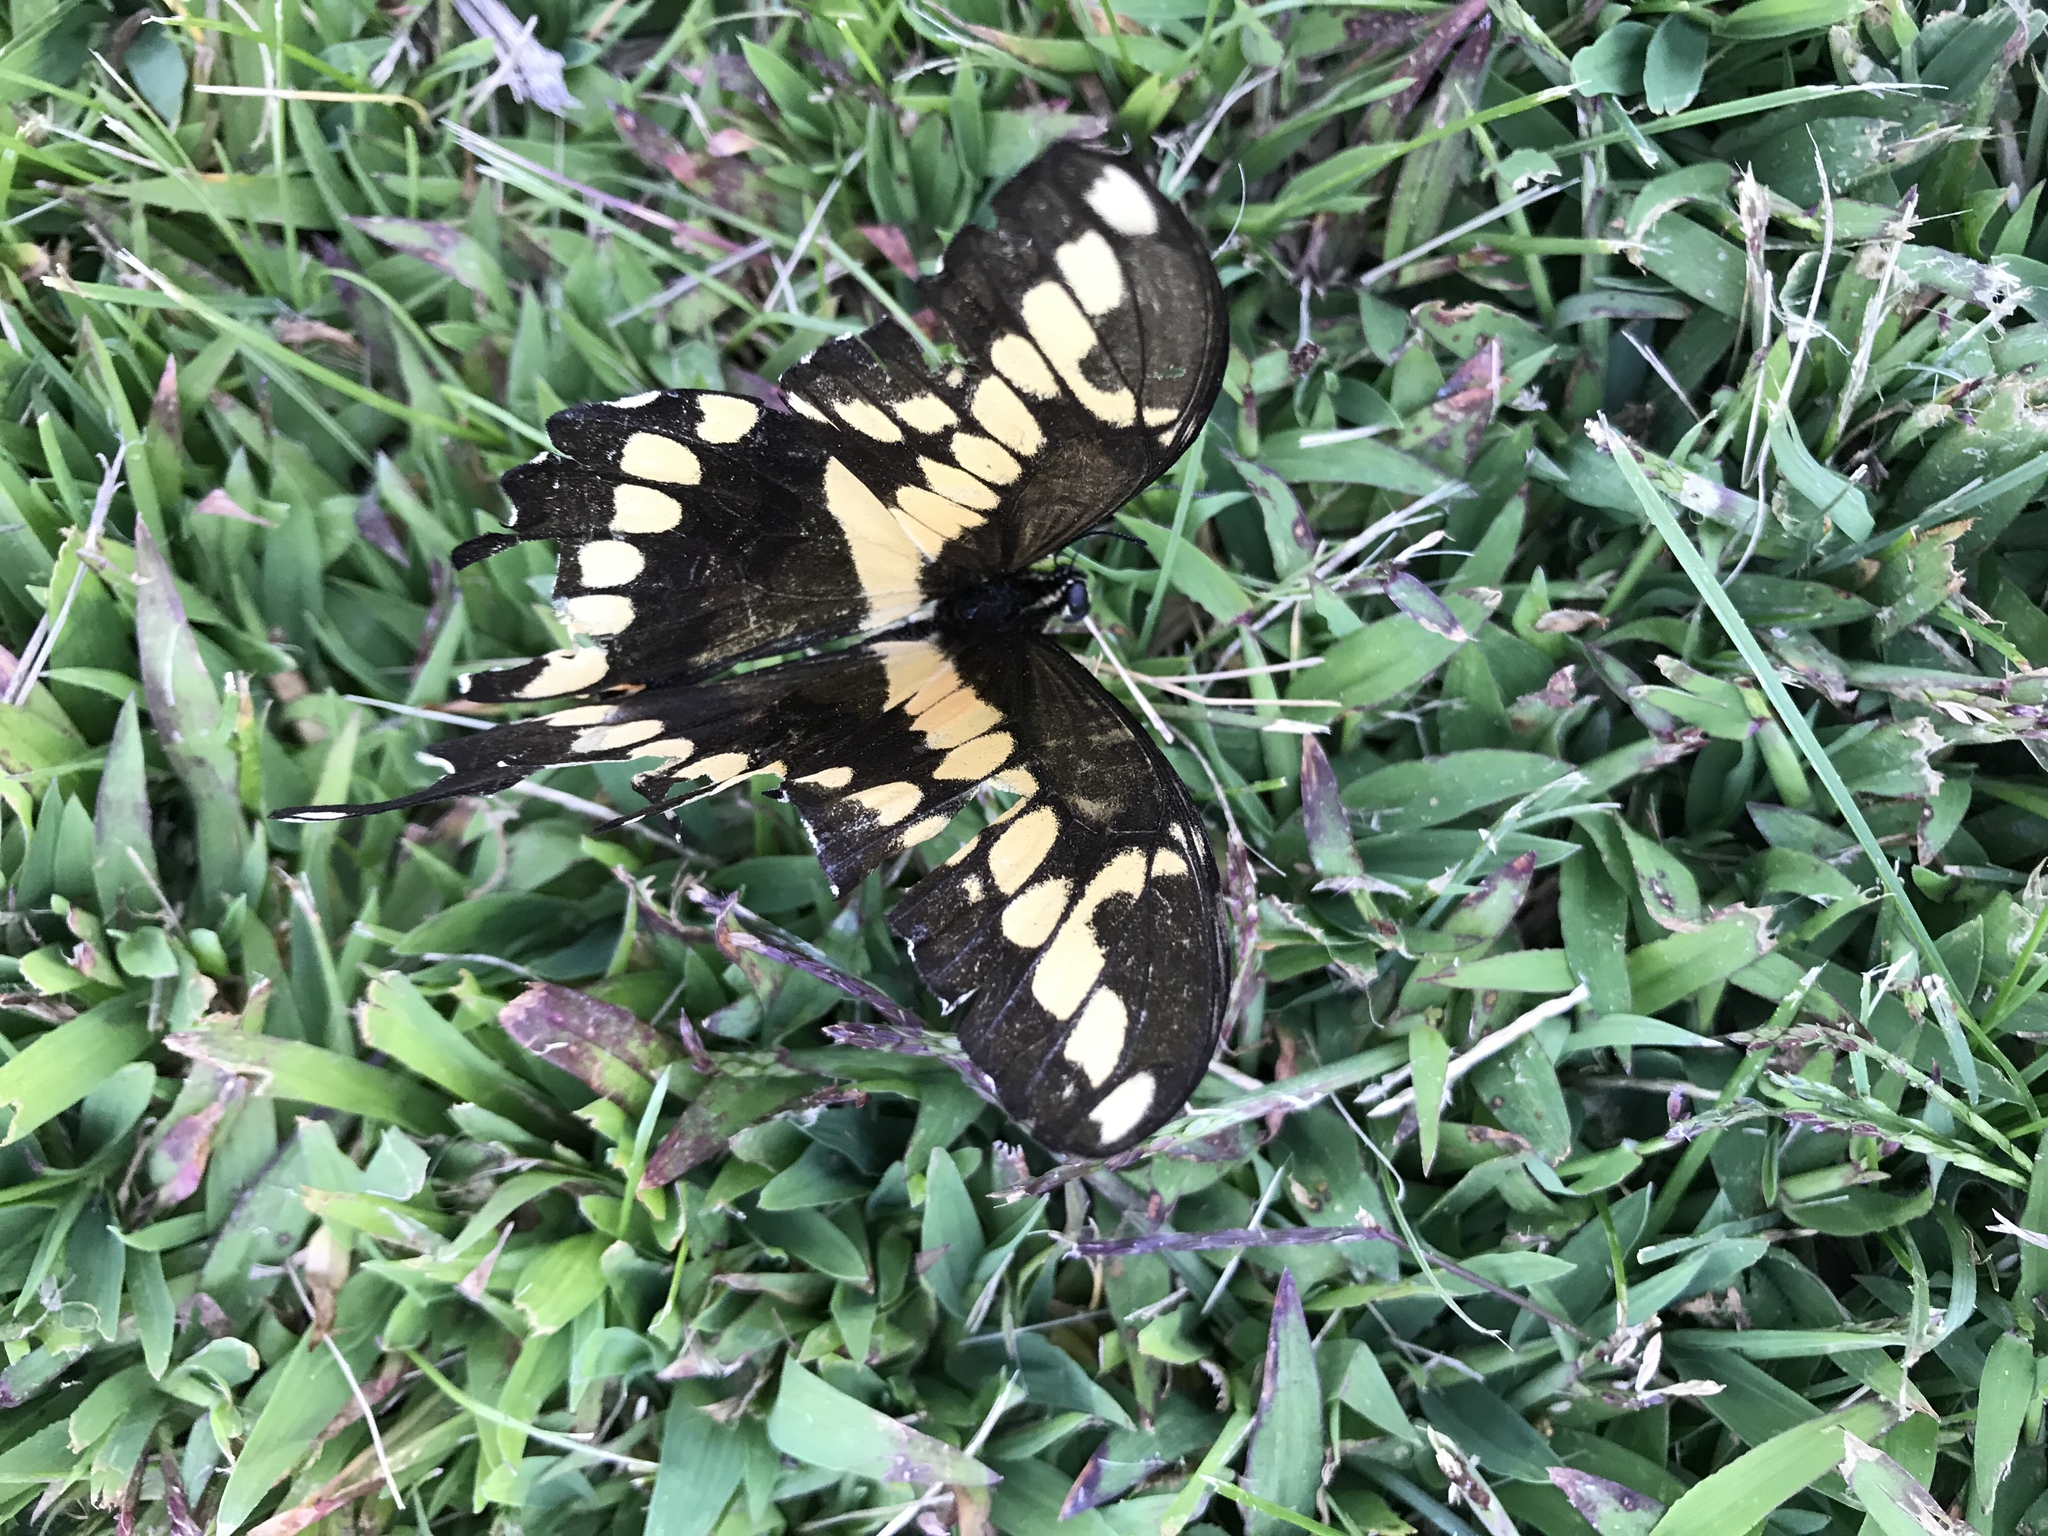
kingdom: Animalia
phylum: Arthropoda
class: Insecta
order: Lepidoptera
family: Papilionidae
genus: Papilio
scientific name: Papilio cresphontes
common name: Giant swallowtail
